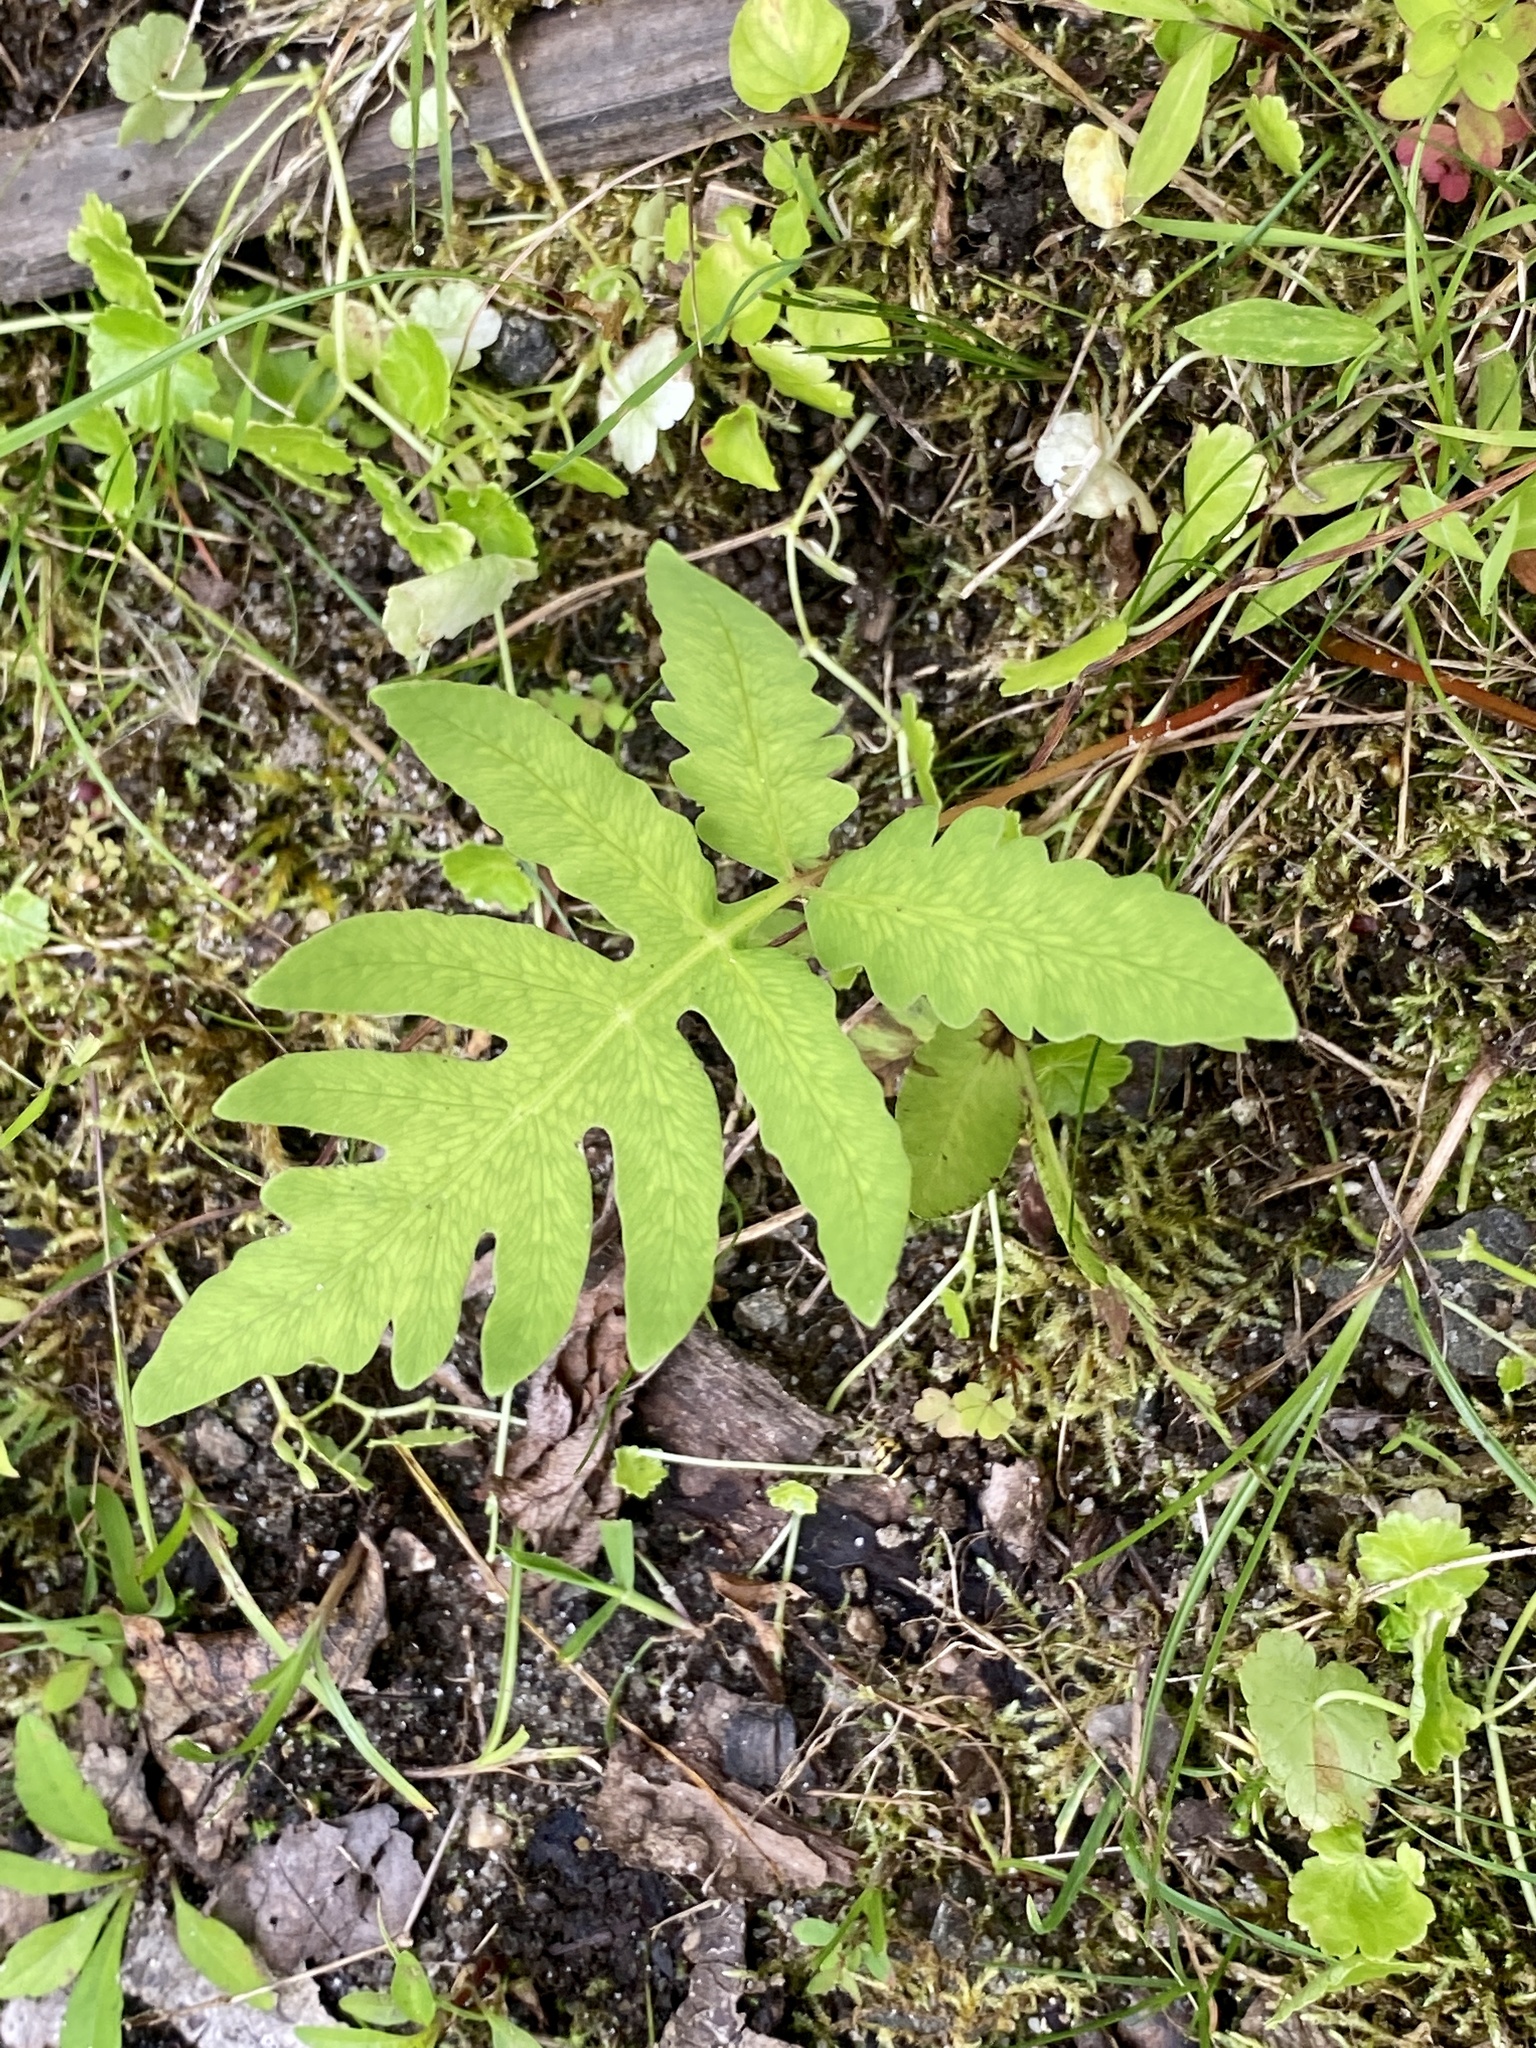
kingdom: Plantae
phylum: Tracheophyta
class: Polypodiopsida
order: Polypodiales
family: Onocleaceae
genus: Onoclea
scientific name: Onoclea sensibilis
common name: Sensitive fern
